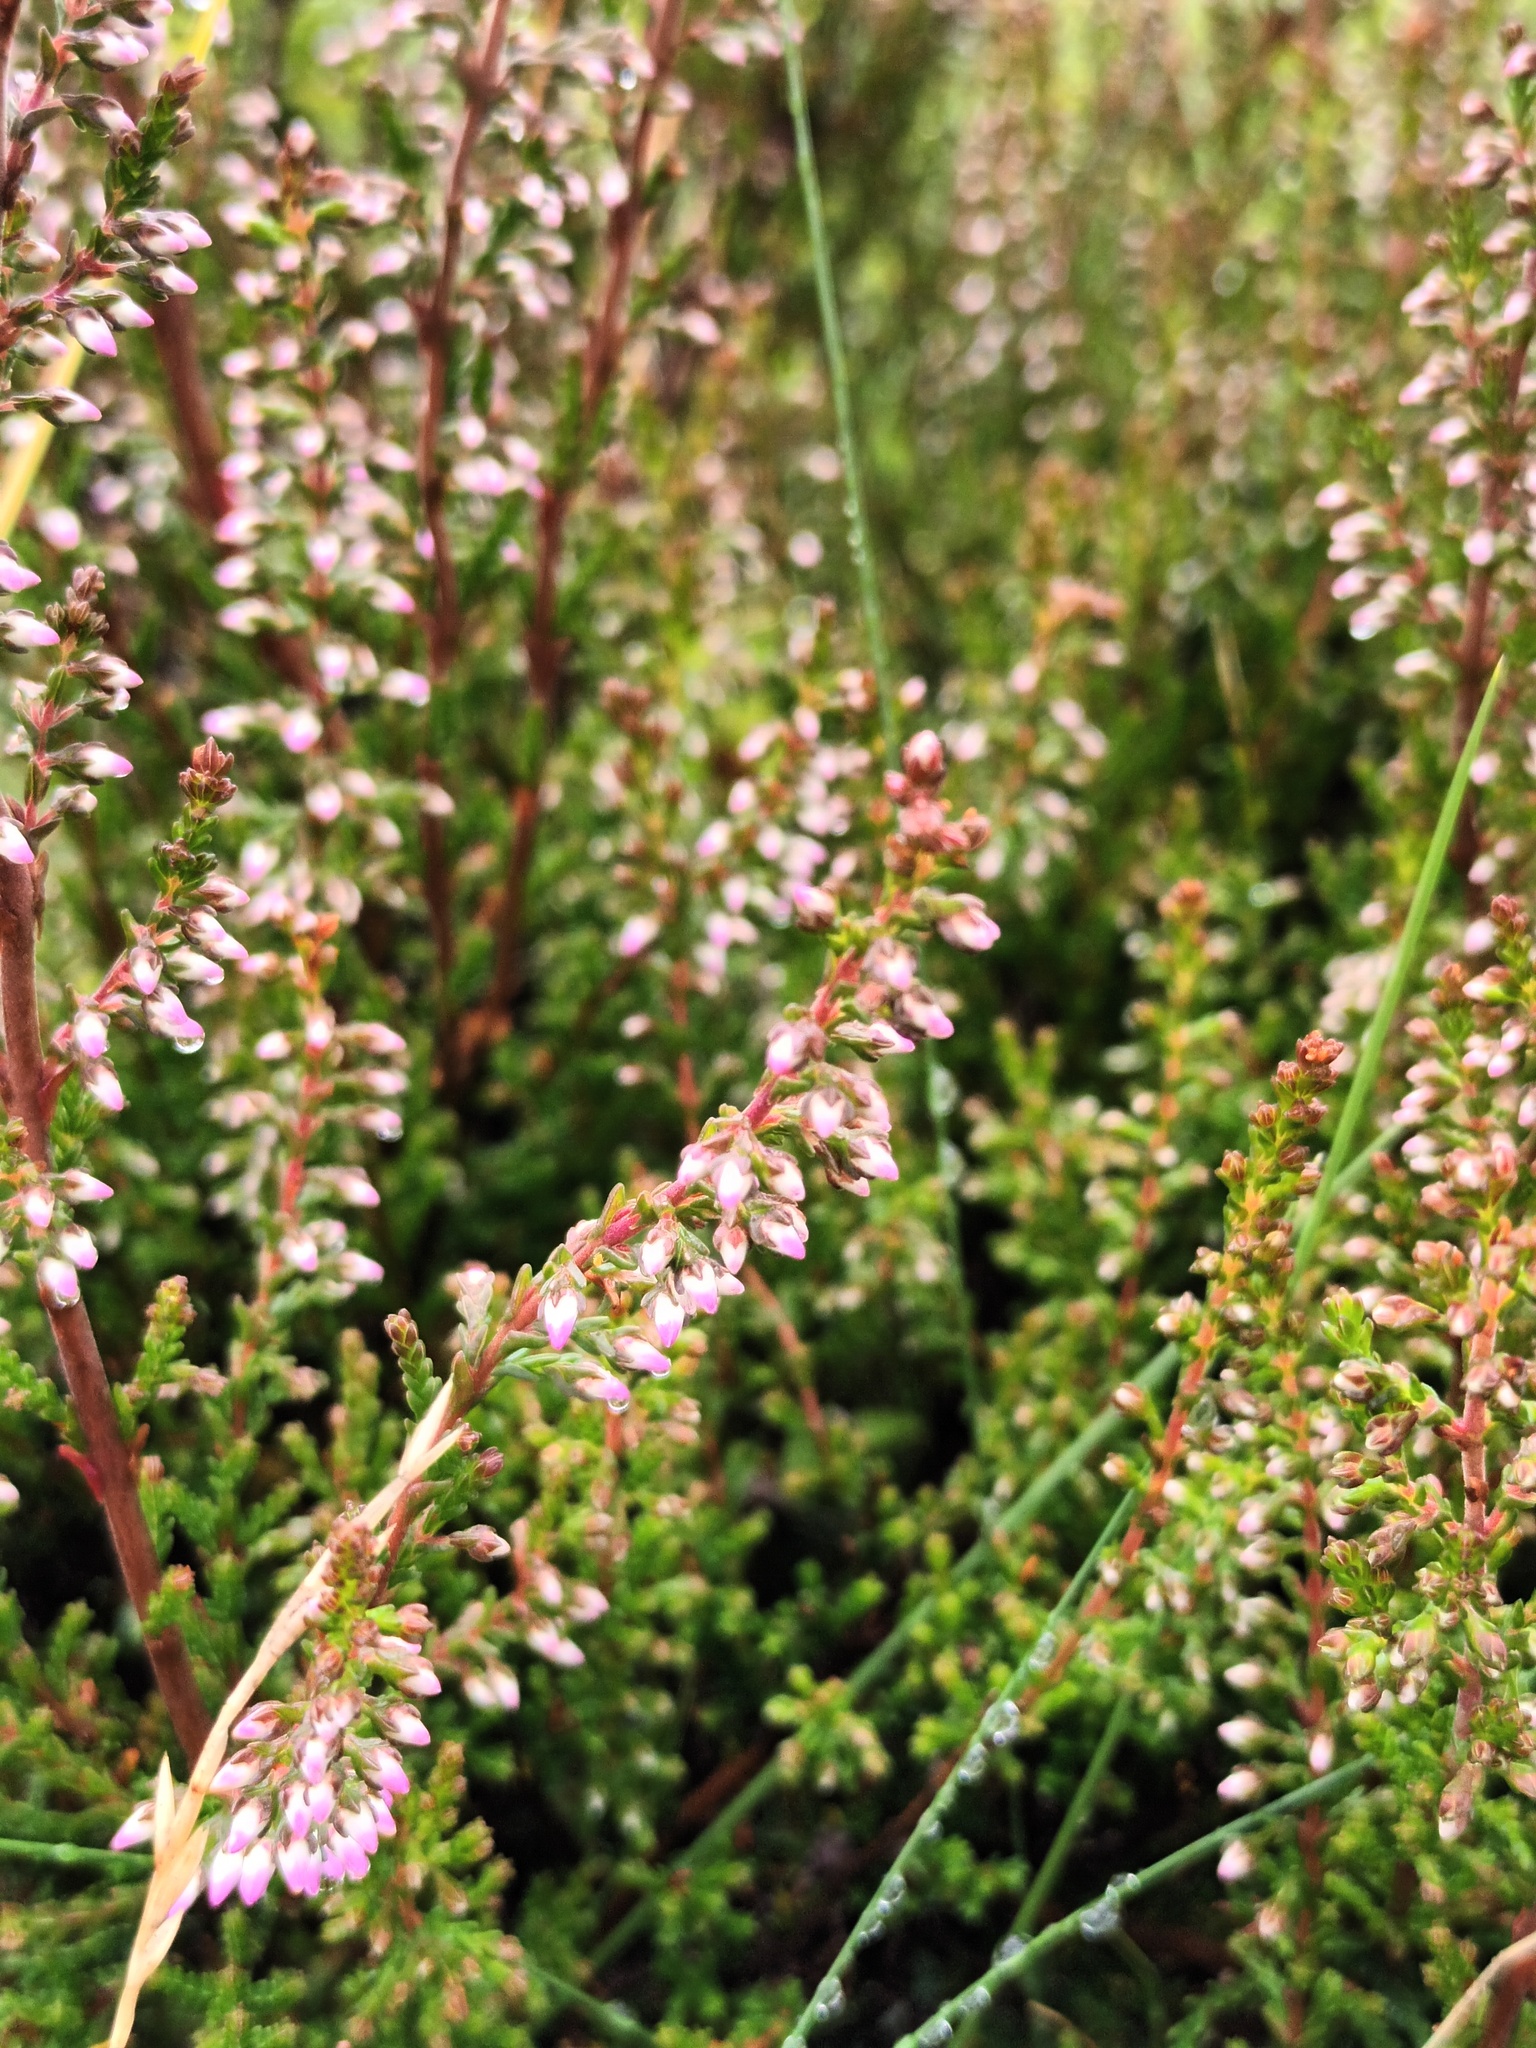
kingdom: Plantae
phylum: Tracheophyta
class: Magnoliopsida
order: Ericales
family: Ericaceae
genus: Calluna
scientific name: Calluna vulgaris
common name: Heather
